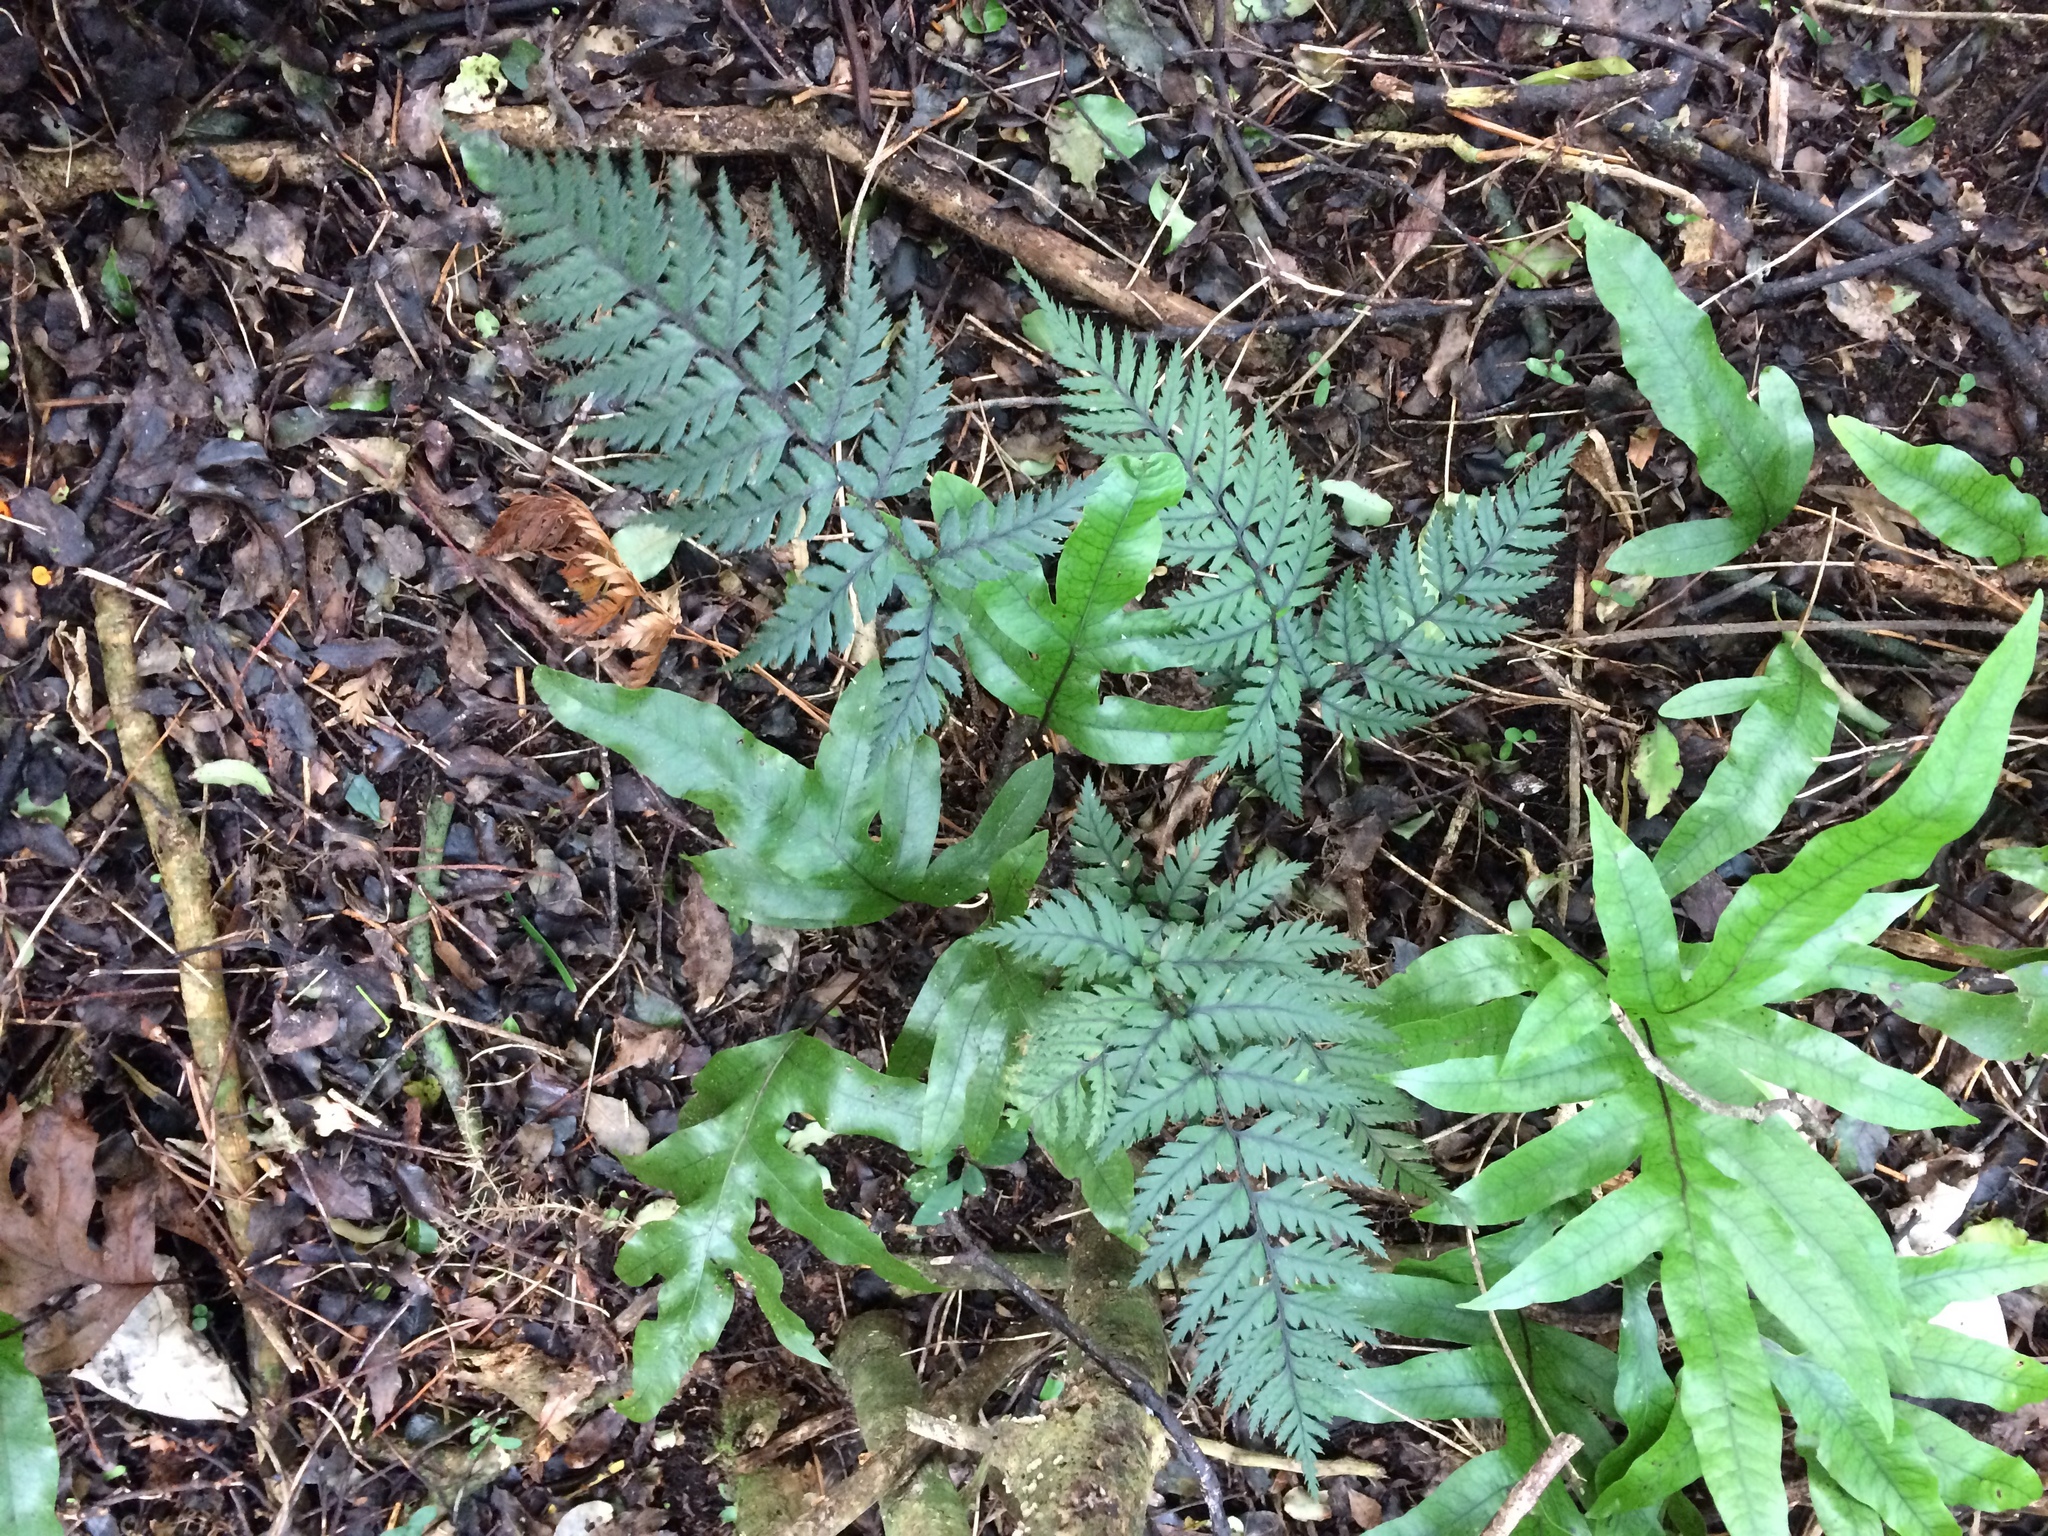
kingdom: Plantae
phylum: Tracheophyta
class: Polypodiopsida
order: Polypodiales
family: Dryopteridaceae
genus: Polystichum
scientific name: Polystichum neozelandicum
